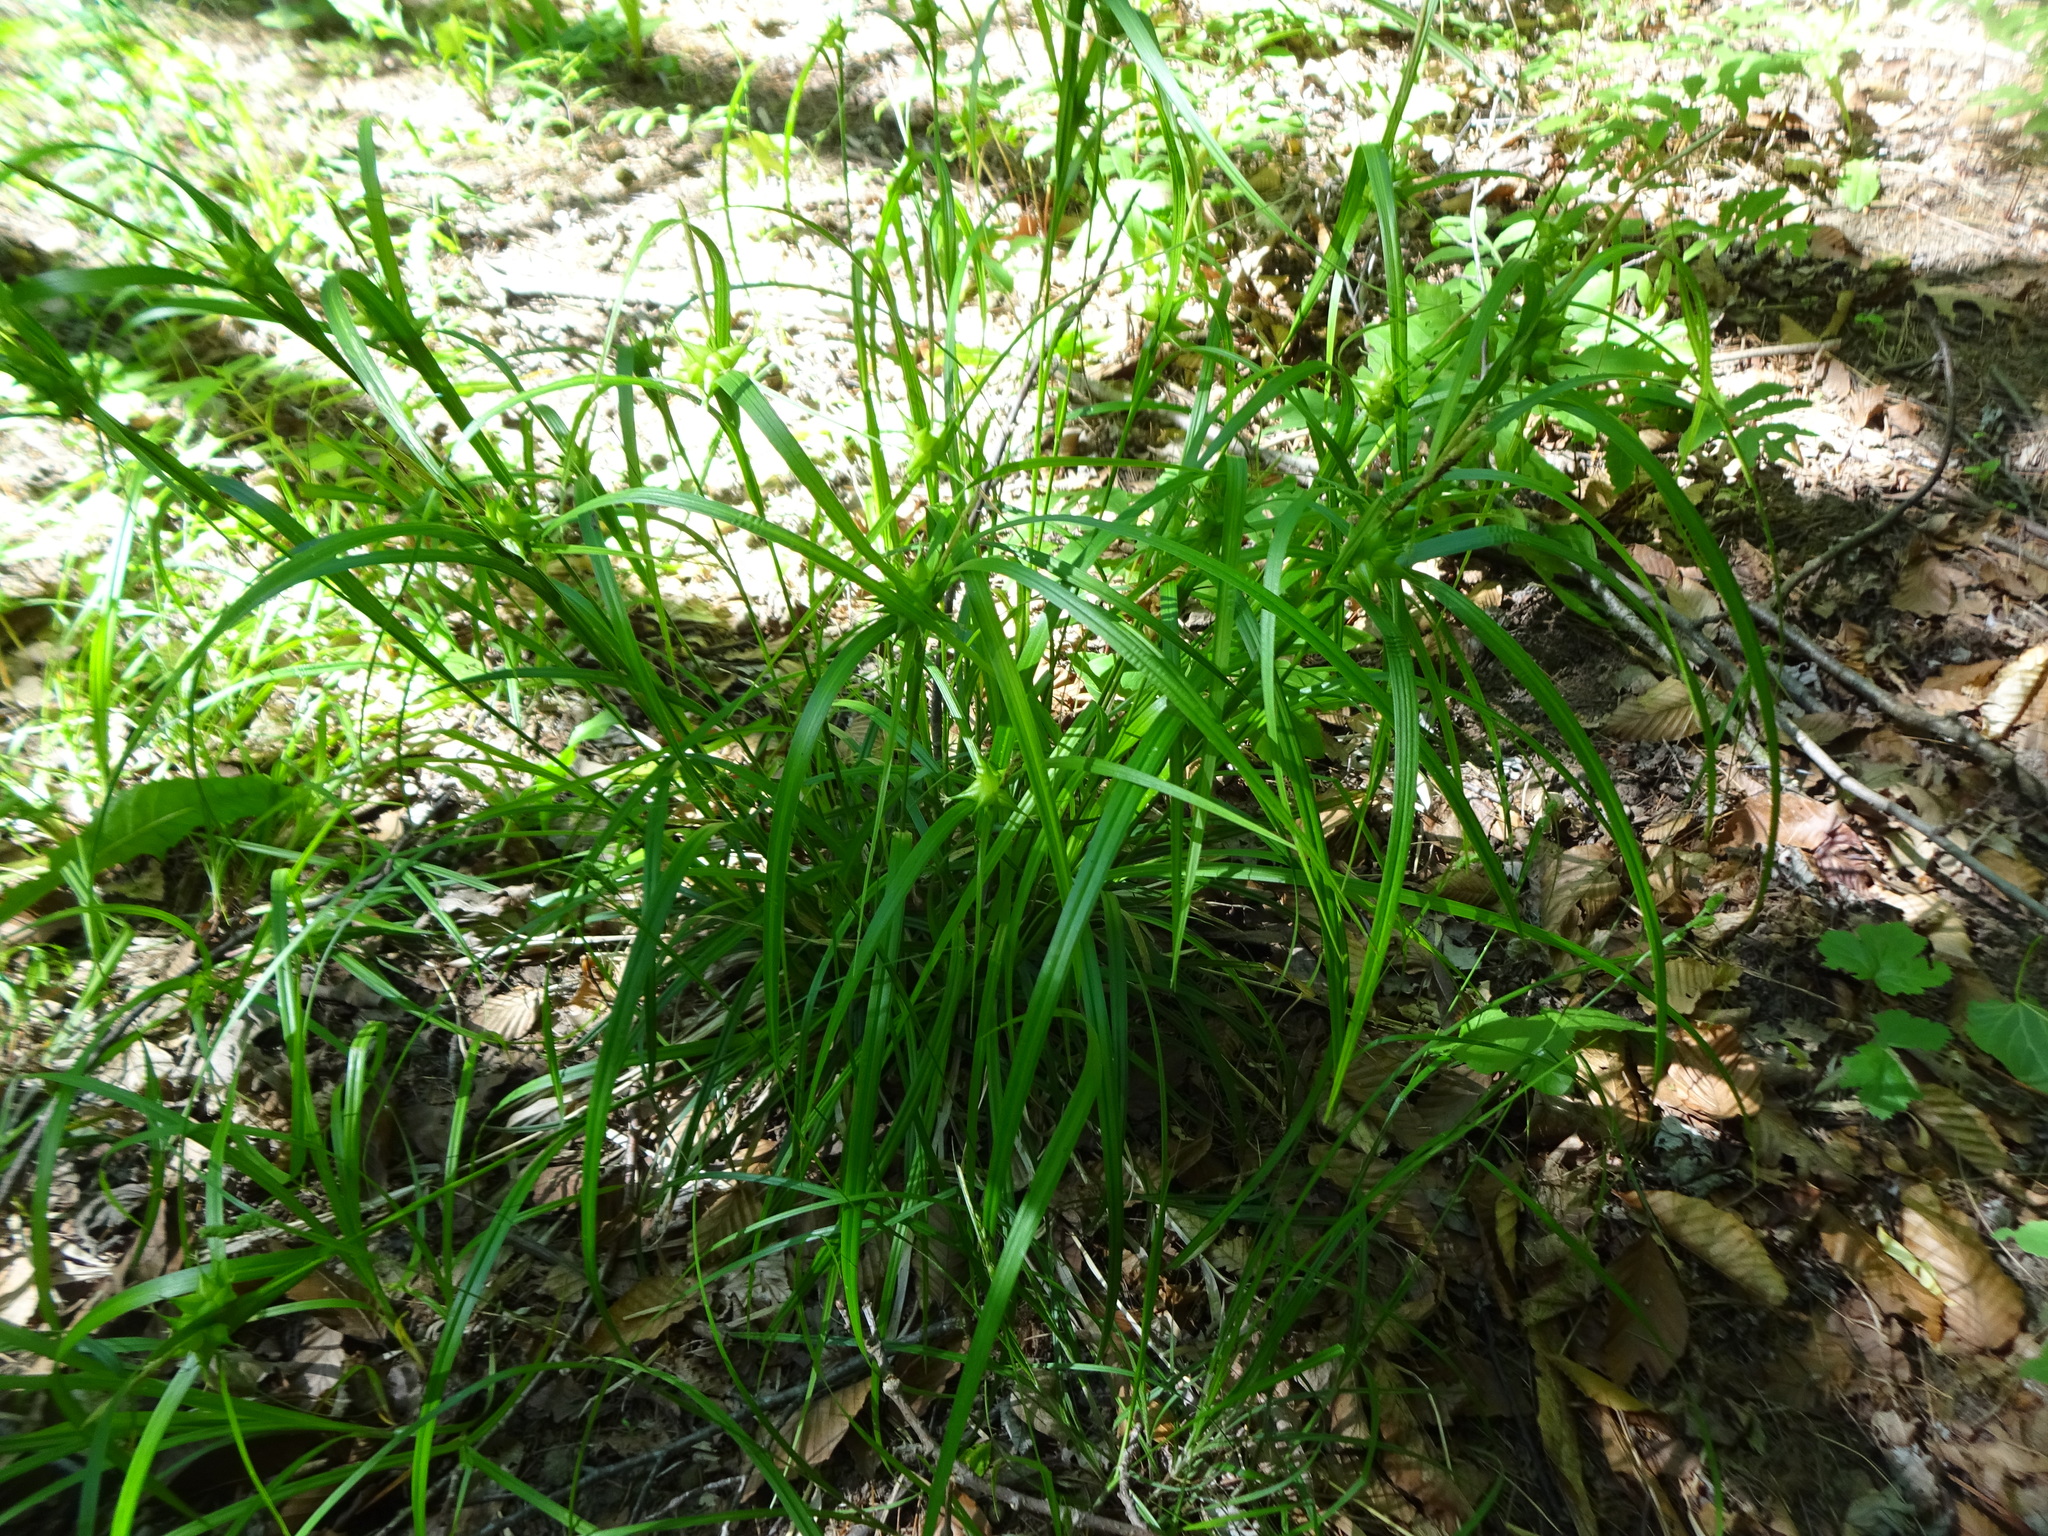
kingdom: Plantae
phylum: Tracheophyta
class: Liliopsida
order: Poales
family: Cyperaceae
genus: Carex
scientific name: Carex intumescens
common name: Greater bladder sedge
